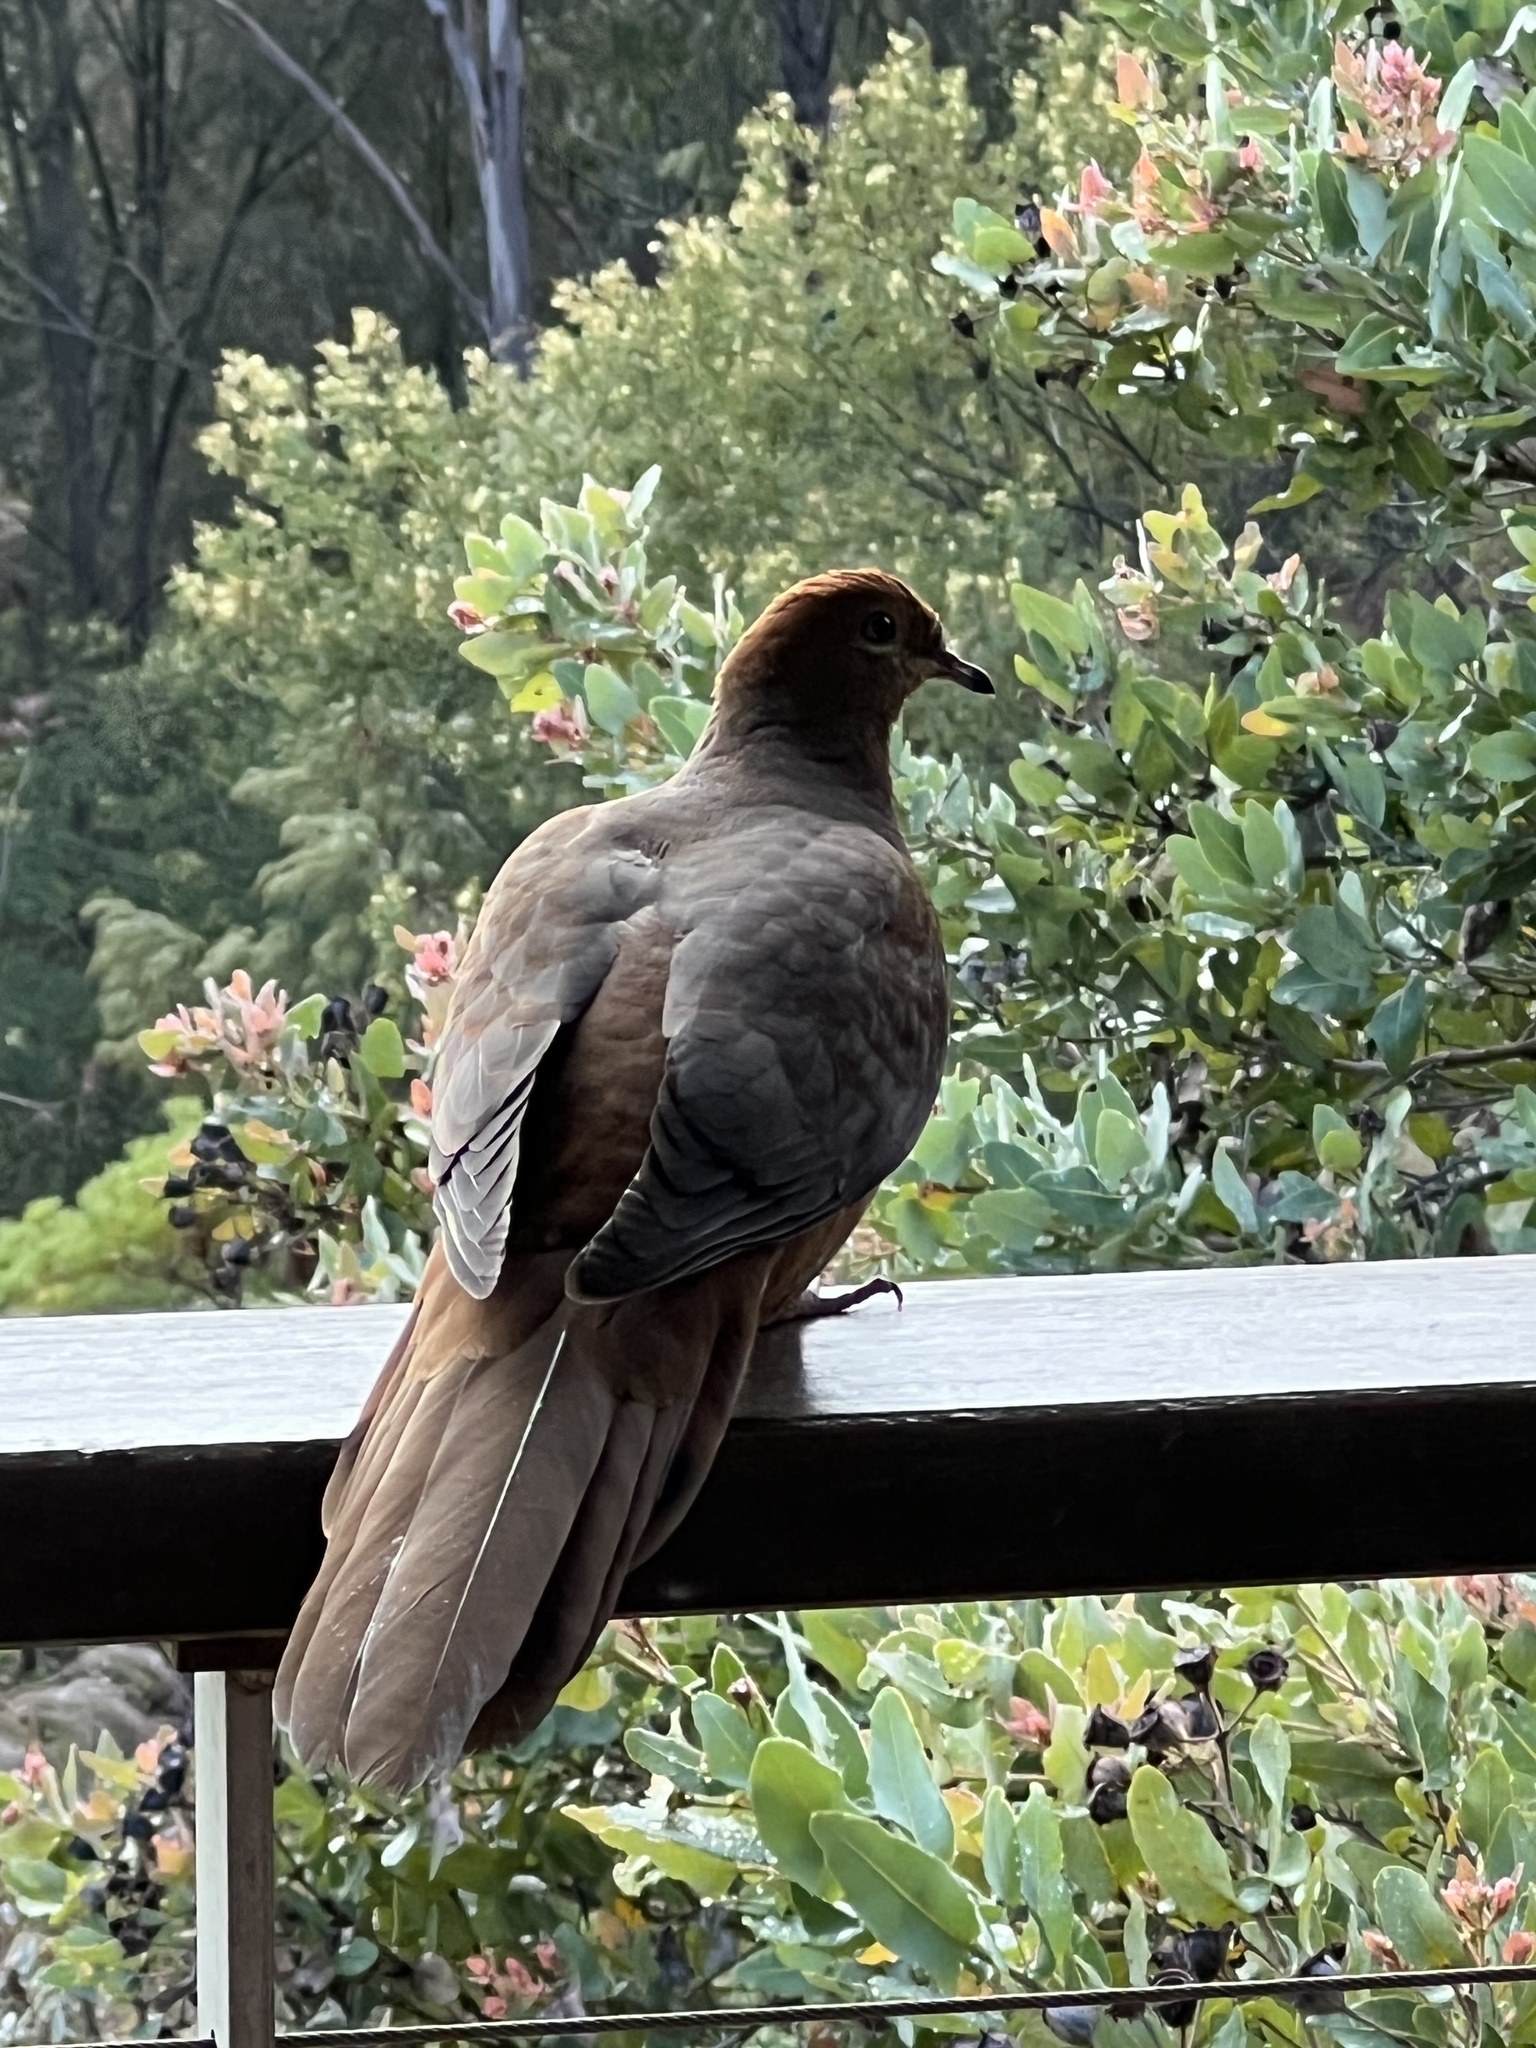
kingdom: Animalia
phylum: Chordata
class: Aves
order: Columbiformes
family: Columbidae
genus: Macropygia
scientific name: Macropygia phasianella
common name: Brown cuckoo-dove
